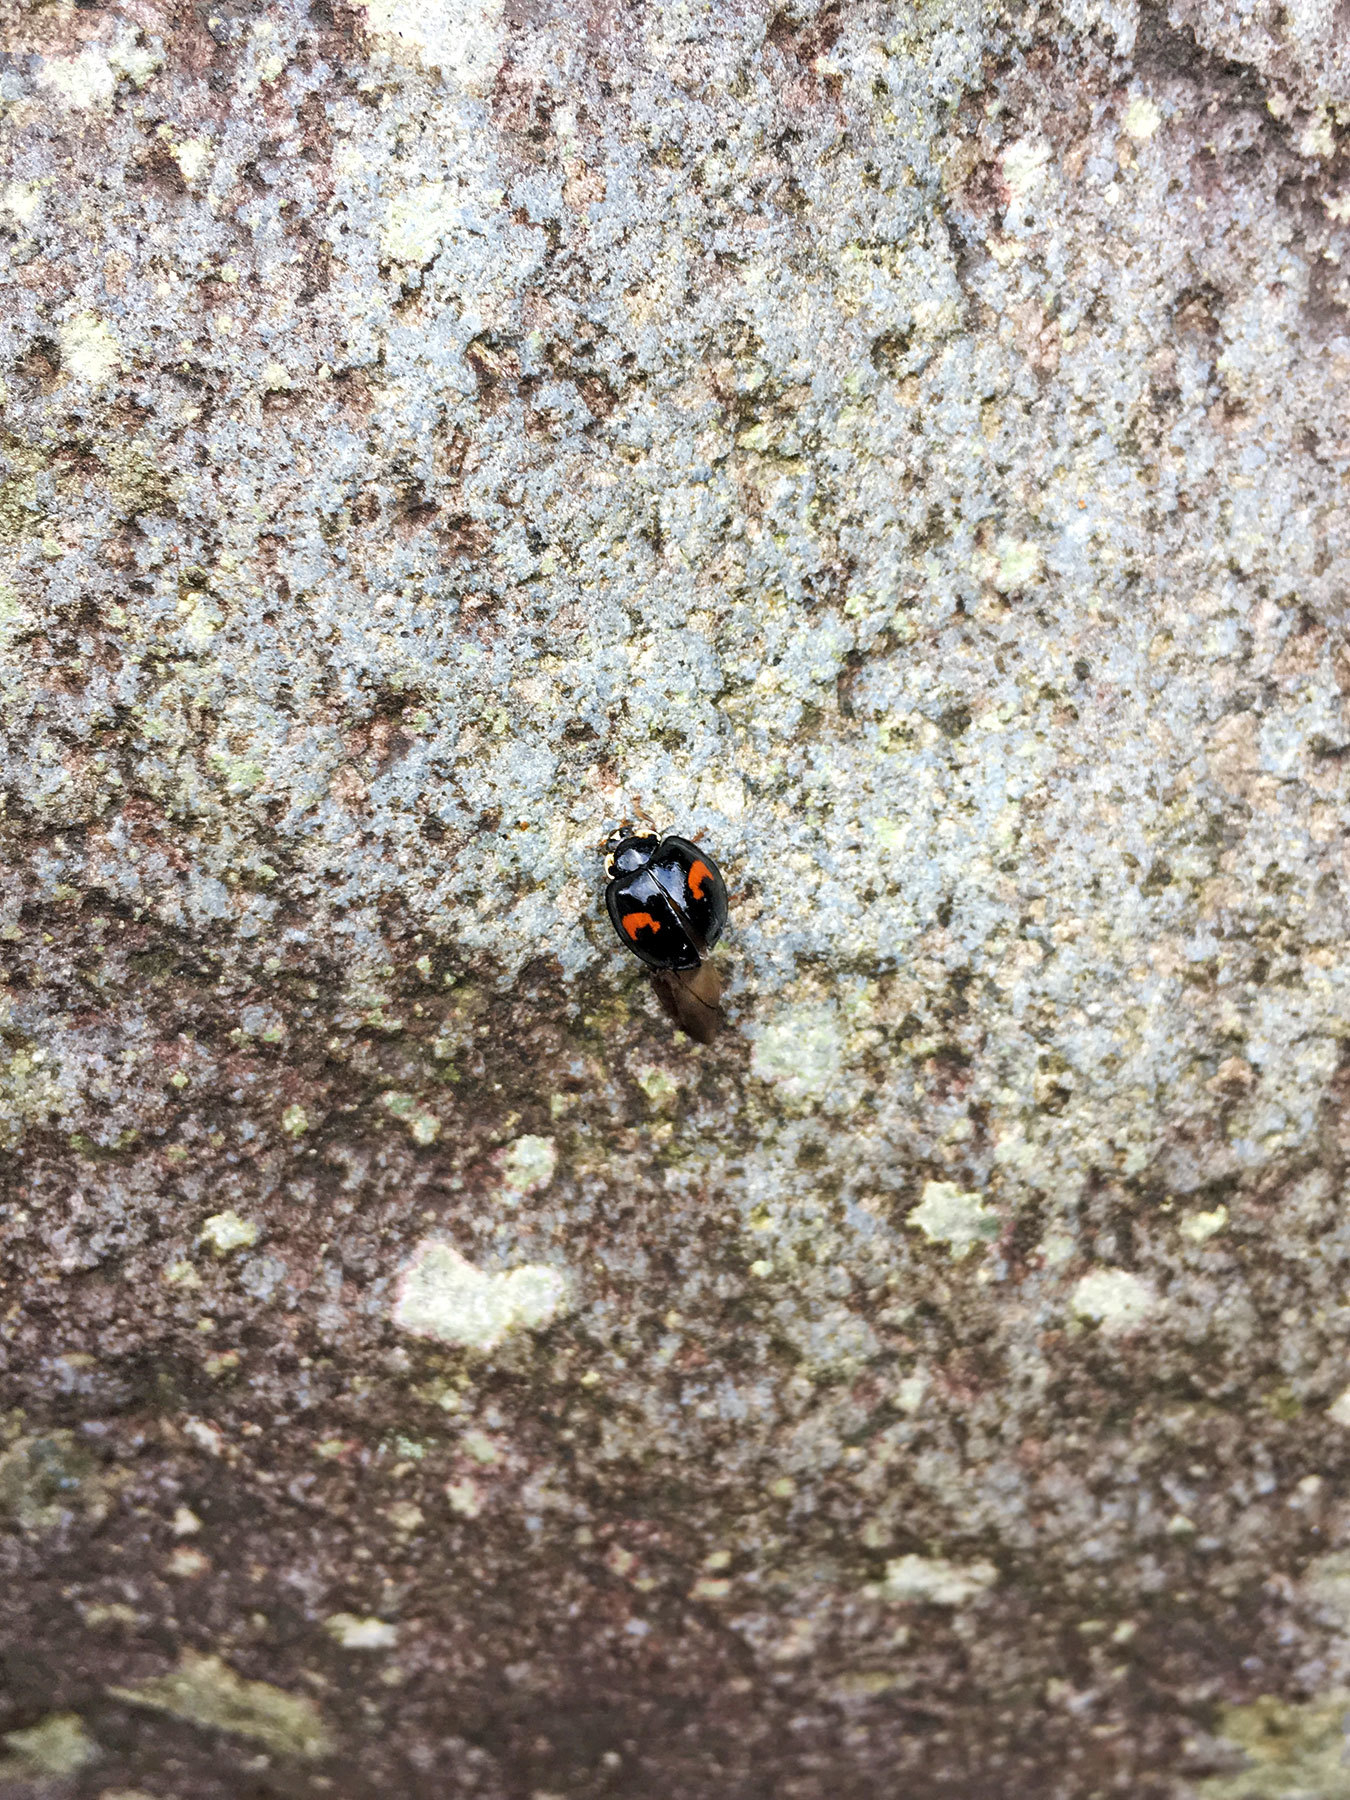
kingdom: Animalia
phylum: Arthropoda
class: Insecta
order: Coleoptera
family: Coccinellidae
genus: Harmonia
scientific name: Harmonia axyridis
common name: Harlequin ladybird
